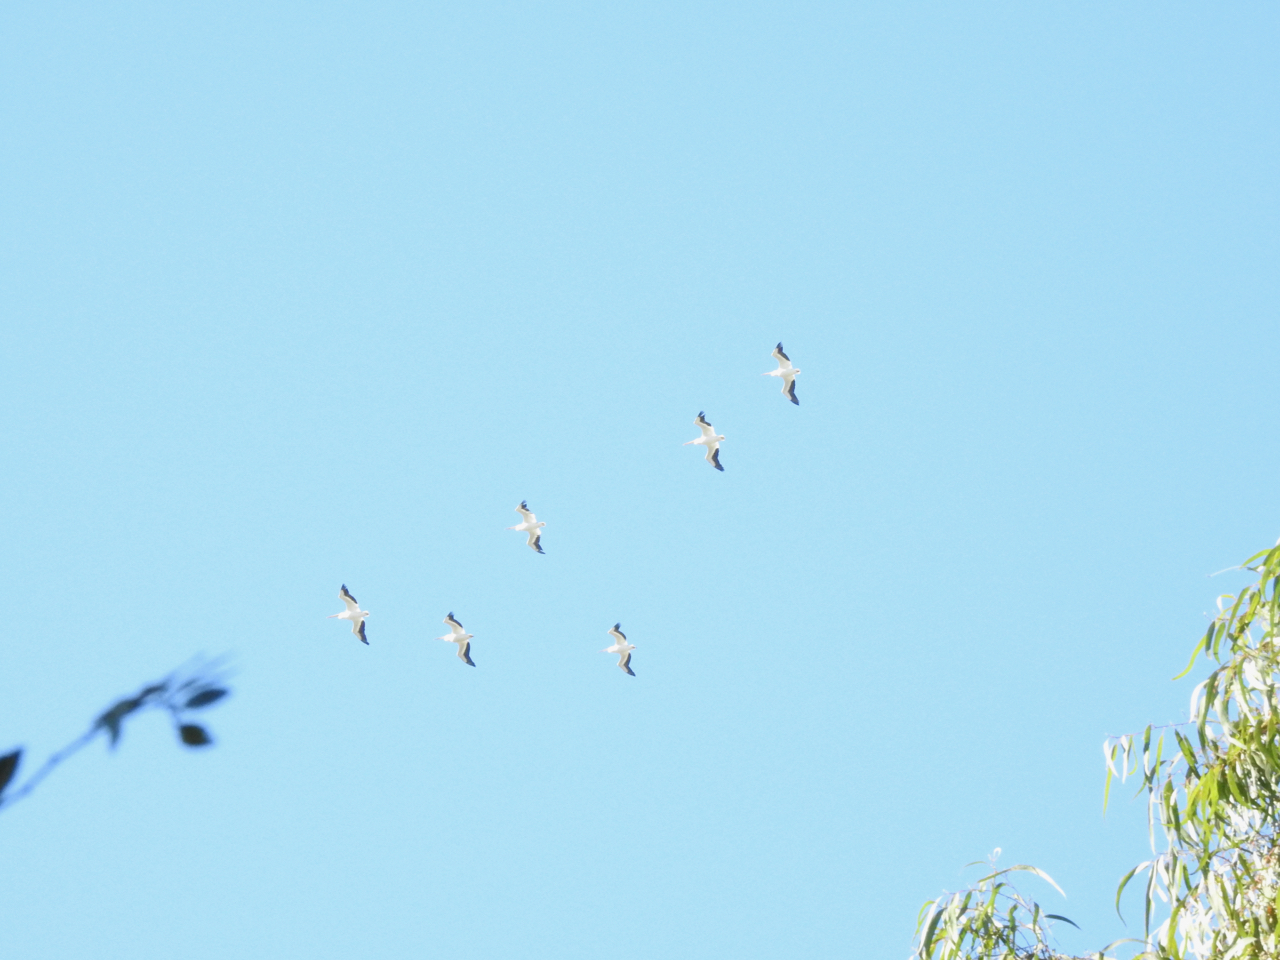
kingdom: Animalia
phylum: Chordata
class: Aves
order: Pelecaniformes
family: Pelecanidae
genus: Pelecanus
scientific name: Pelecanus erythrorhynchos
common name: American white pelican
